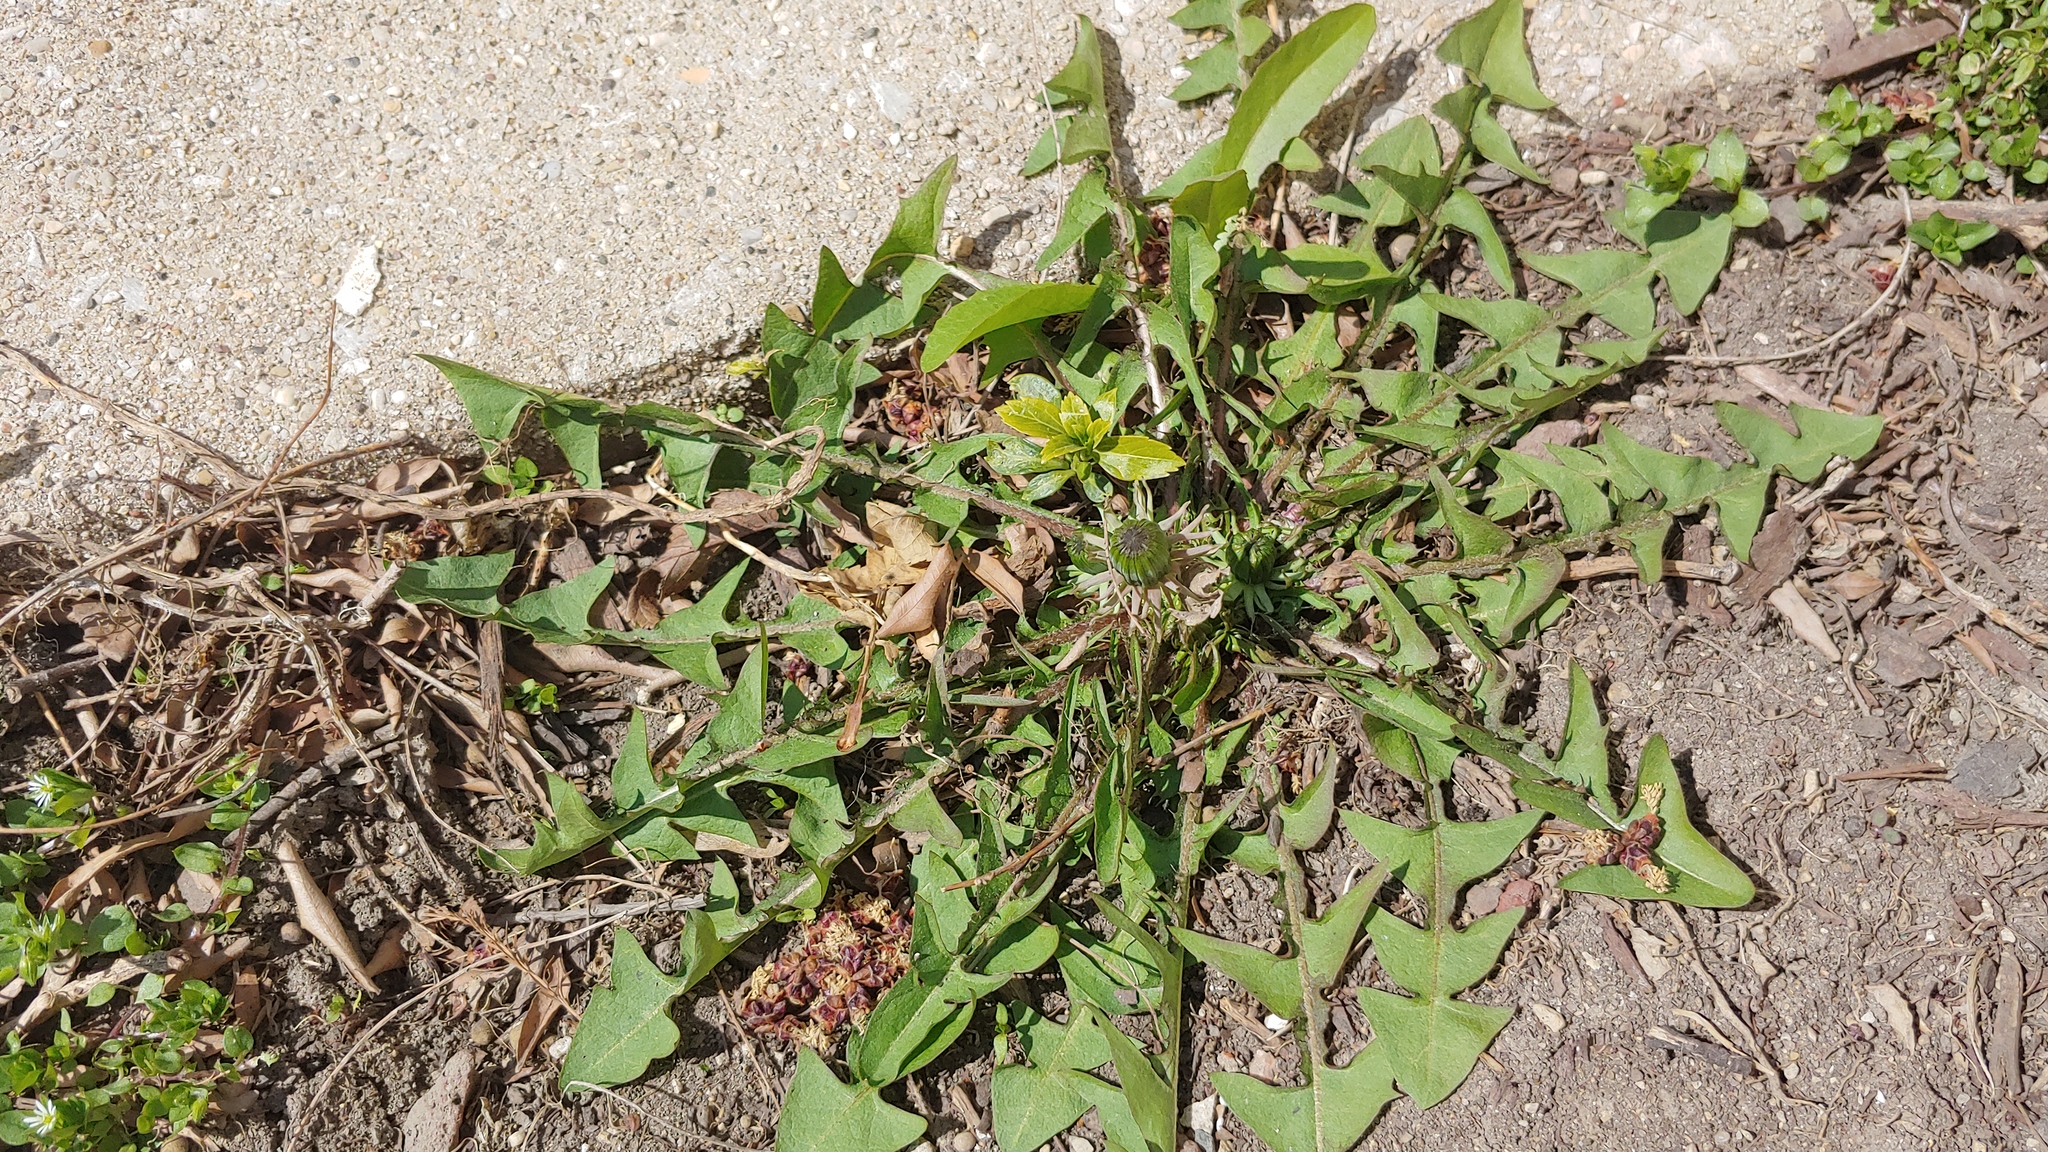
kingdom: Plantae
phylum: Tracheophyta
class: Magnoliopsida
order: Asterales
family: Asteraceae
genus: Taraxacum
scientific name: Taraxacum officinale
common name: Common dandelion
